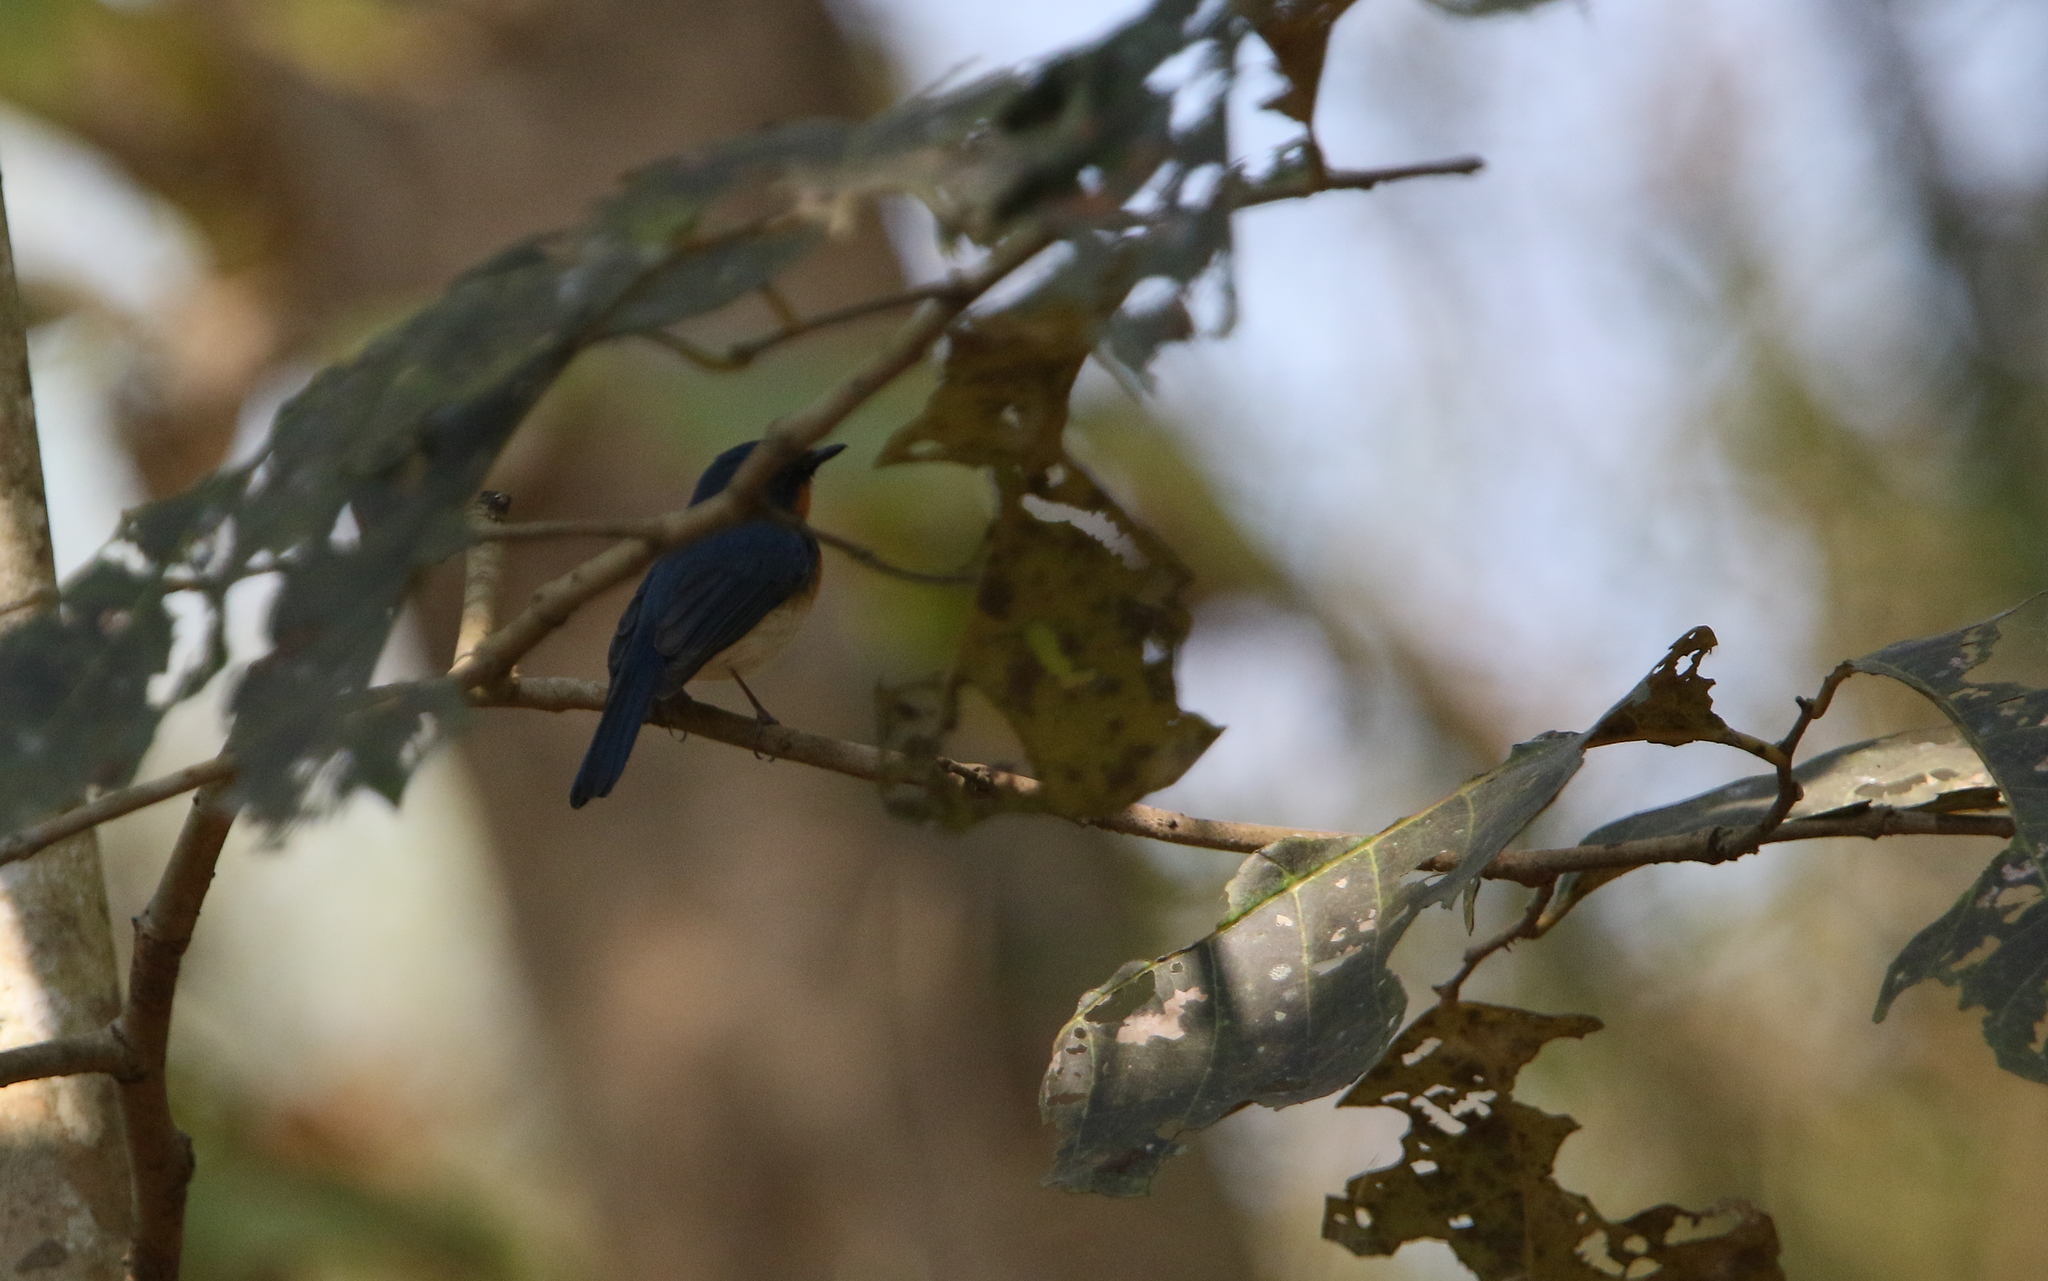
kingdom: Animalia
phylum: Chordata
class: Aves
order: Passeriformes
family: Muscicapidae
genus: Cyornis
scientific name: Cyornis tickelliae
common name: Tickell's blue flycatcher
